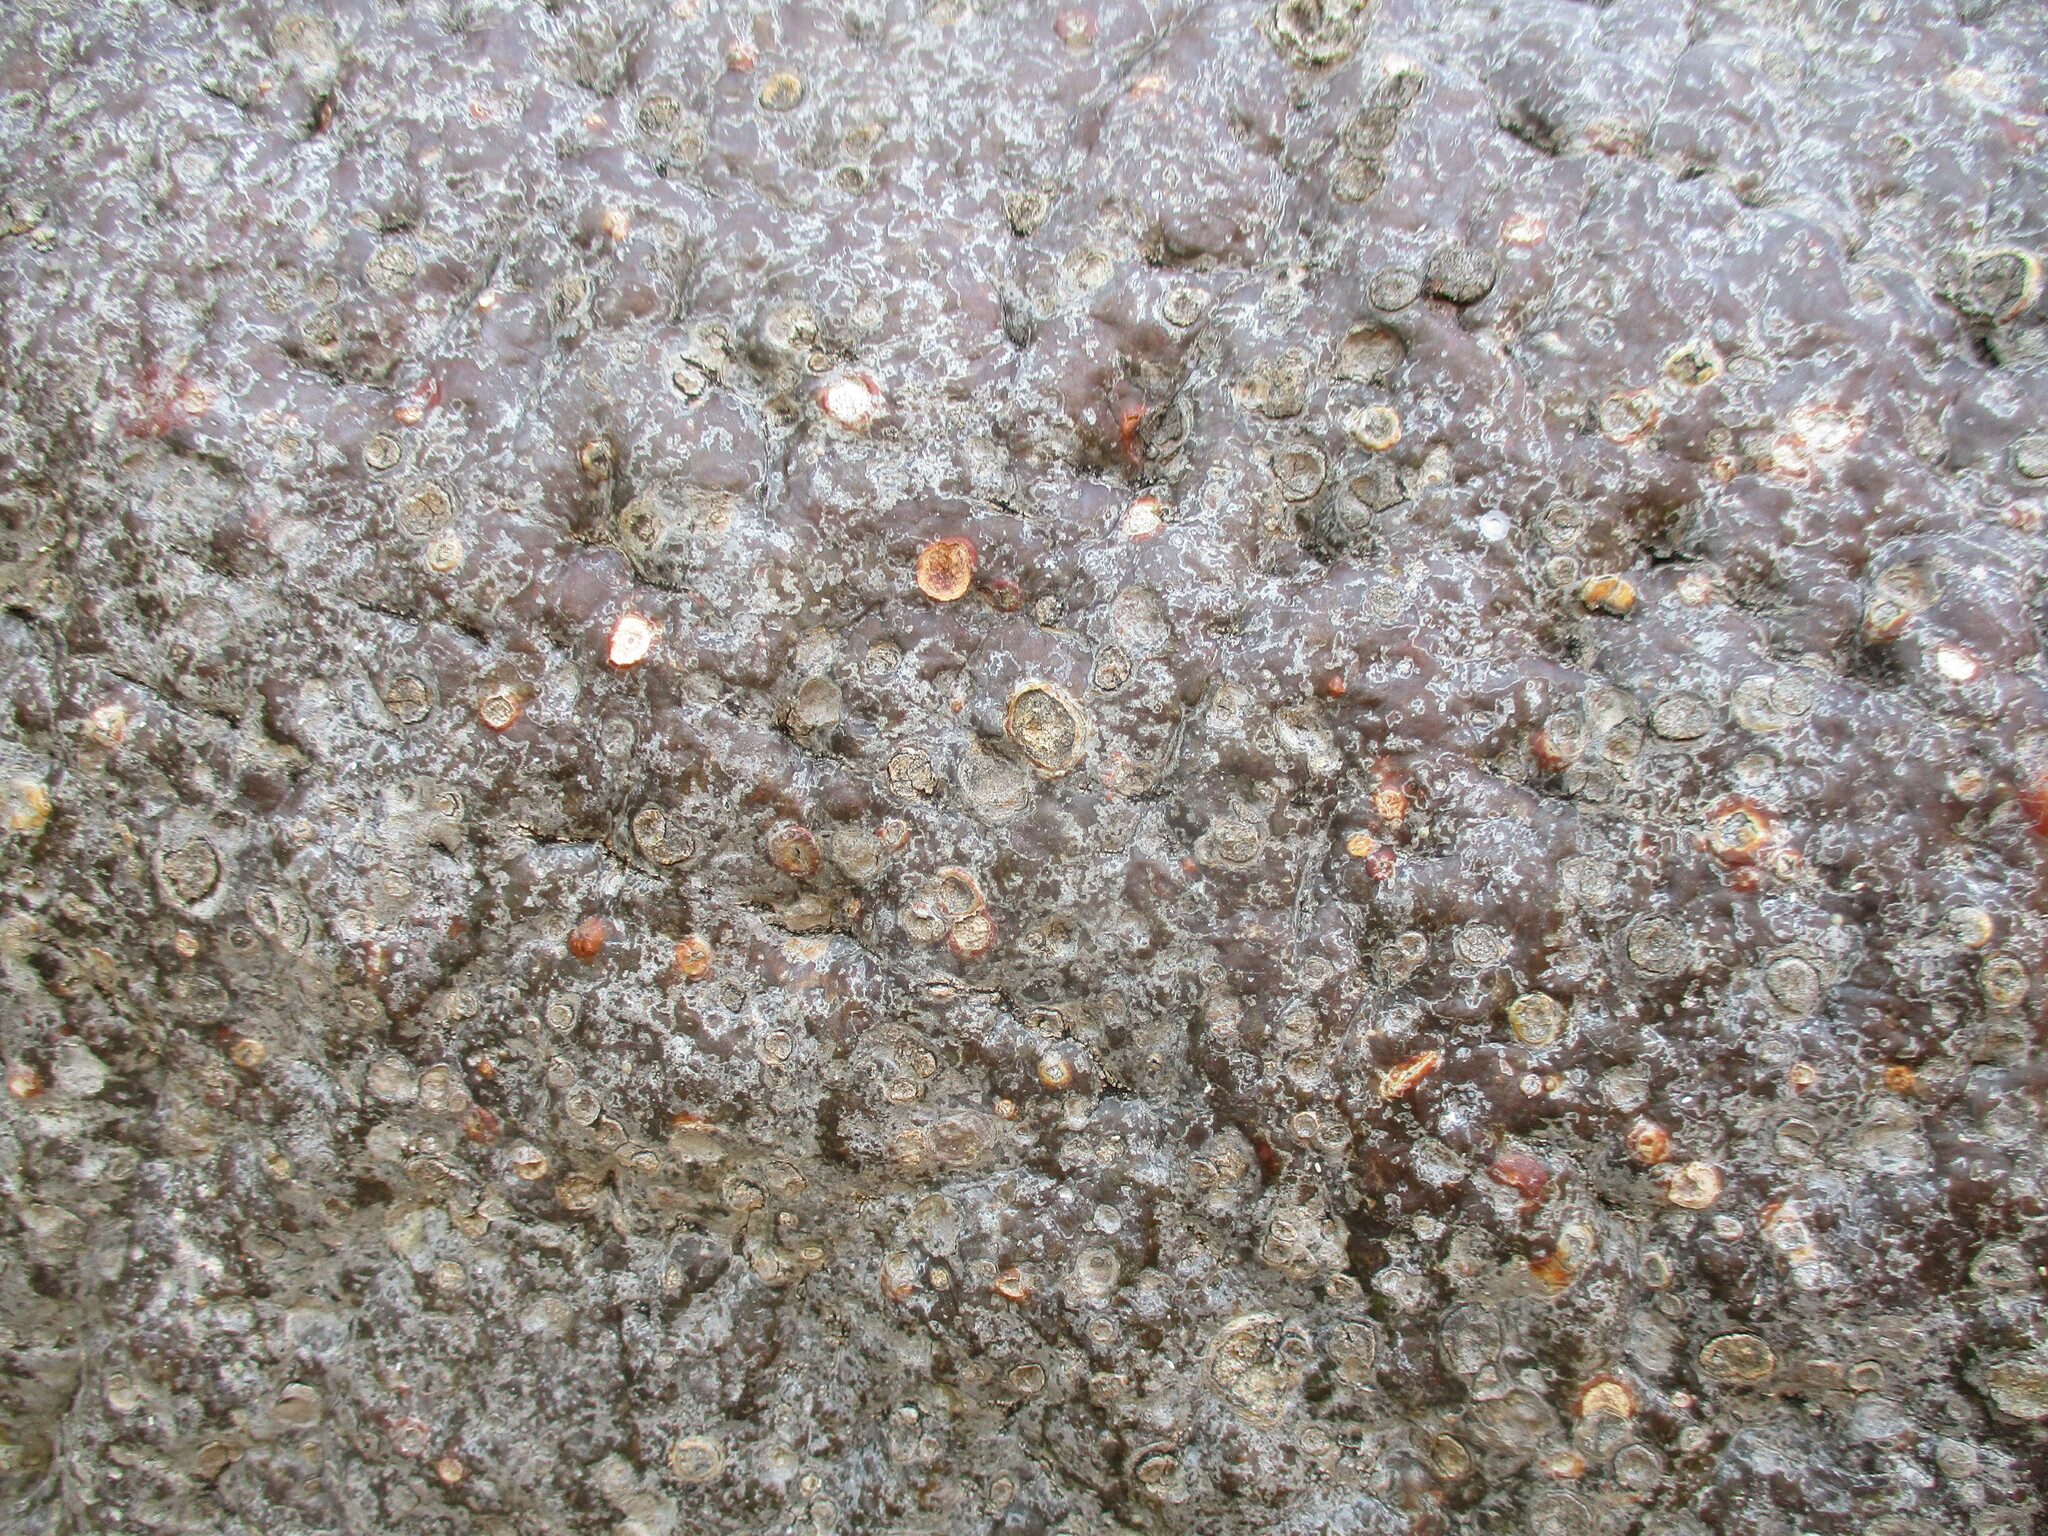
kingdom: Plantae
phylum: Tracheophyta
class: Magnoliopsida
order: Malvales
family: Malvaceae
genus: Adansonia
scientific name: Adansonia digitata
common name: Dead-rat-tree
